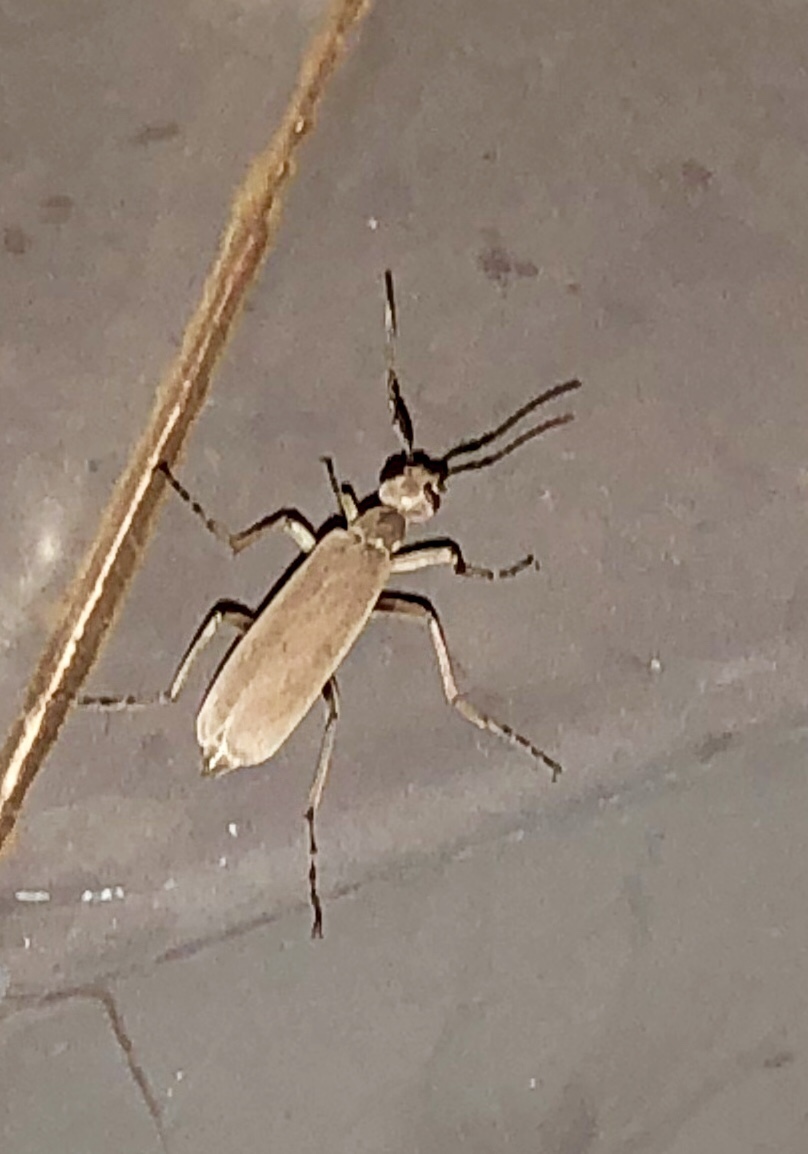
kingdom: Animalia
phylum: Arthropoda
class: Insecta
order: Coleoptera
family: Meloidae
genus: Epicauta
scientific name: Epicauta arizonica
